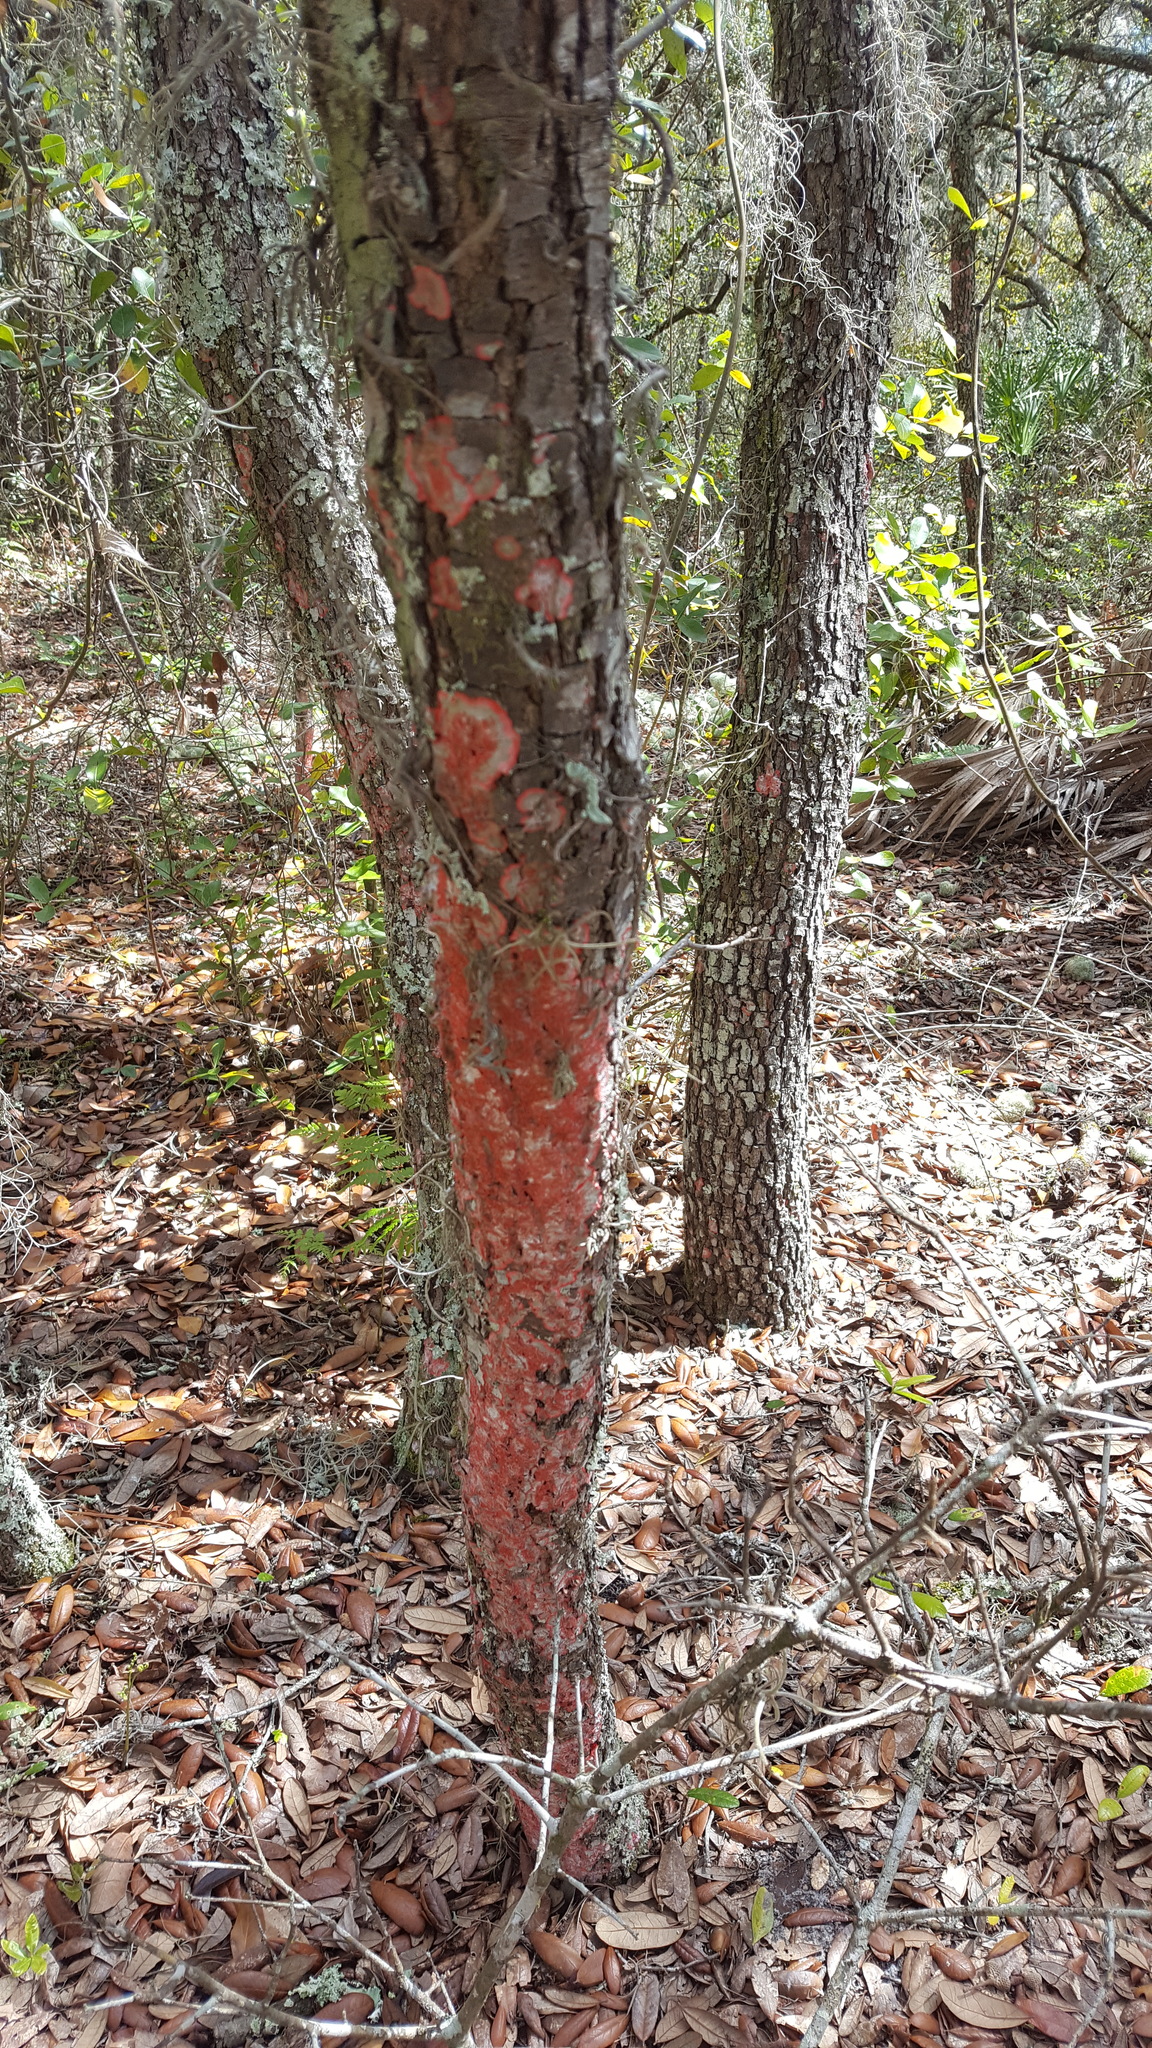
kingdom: Fungi
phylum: Ascomycota
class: Arthoniomycetes
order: Arthoniales
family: Arthoniaceae
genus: Herpothallon
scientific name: Herpothallon rubrocinctum
